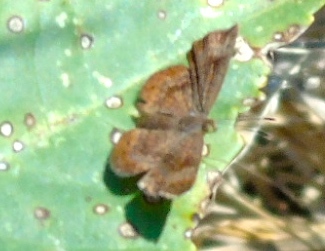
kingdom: Animalia
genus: Calephelis
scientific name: Calephelis
